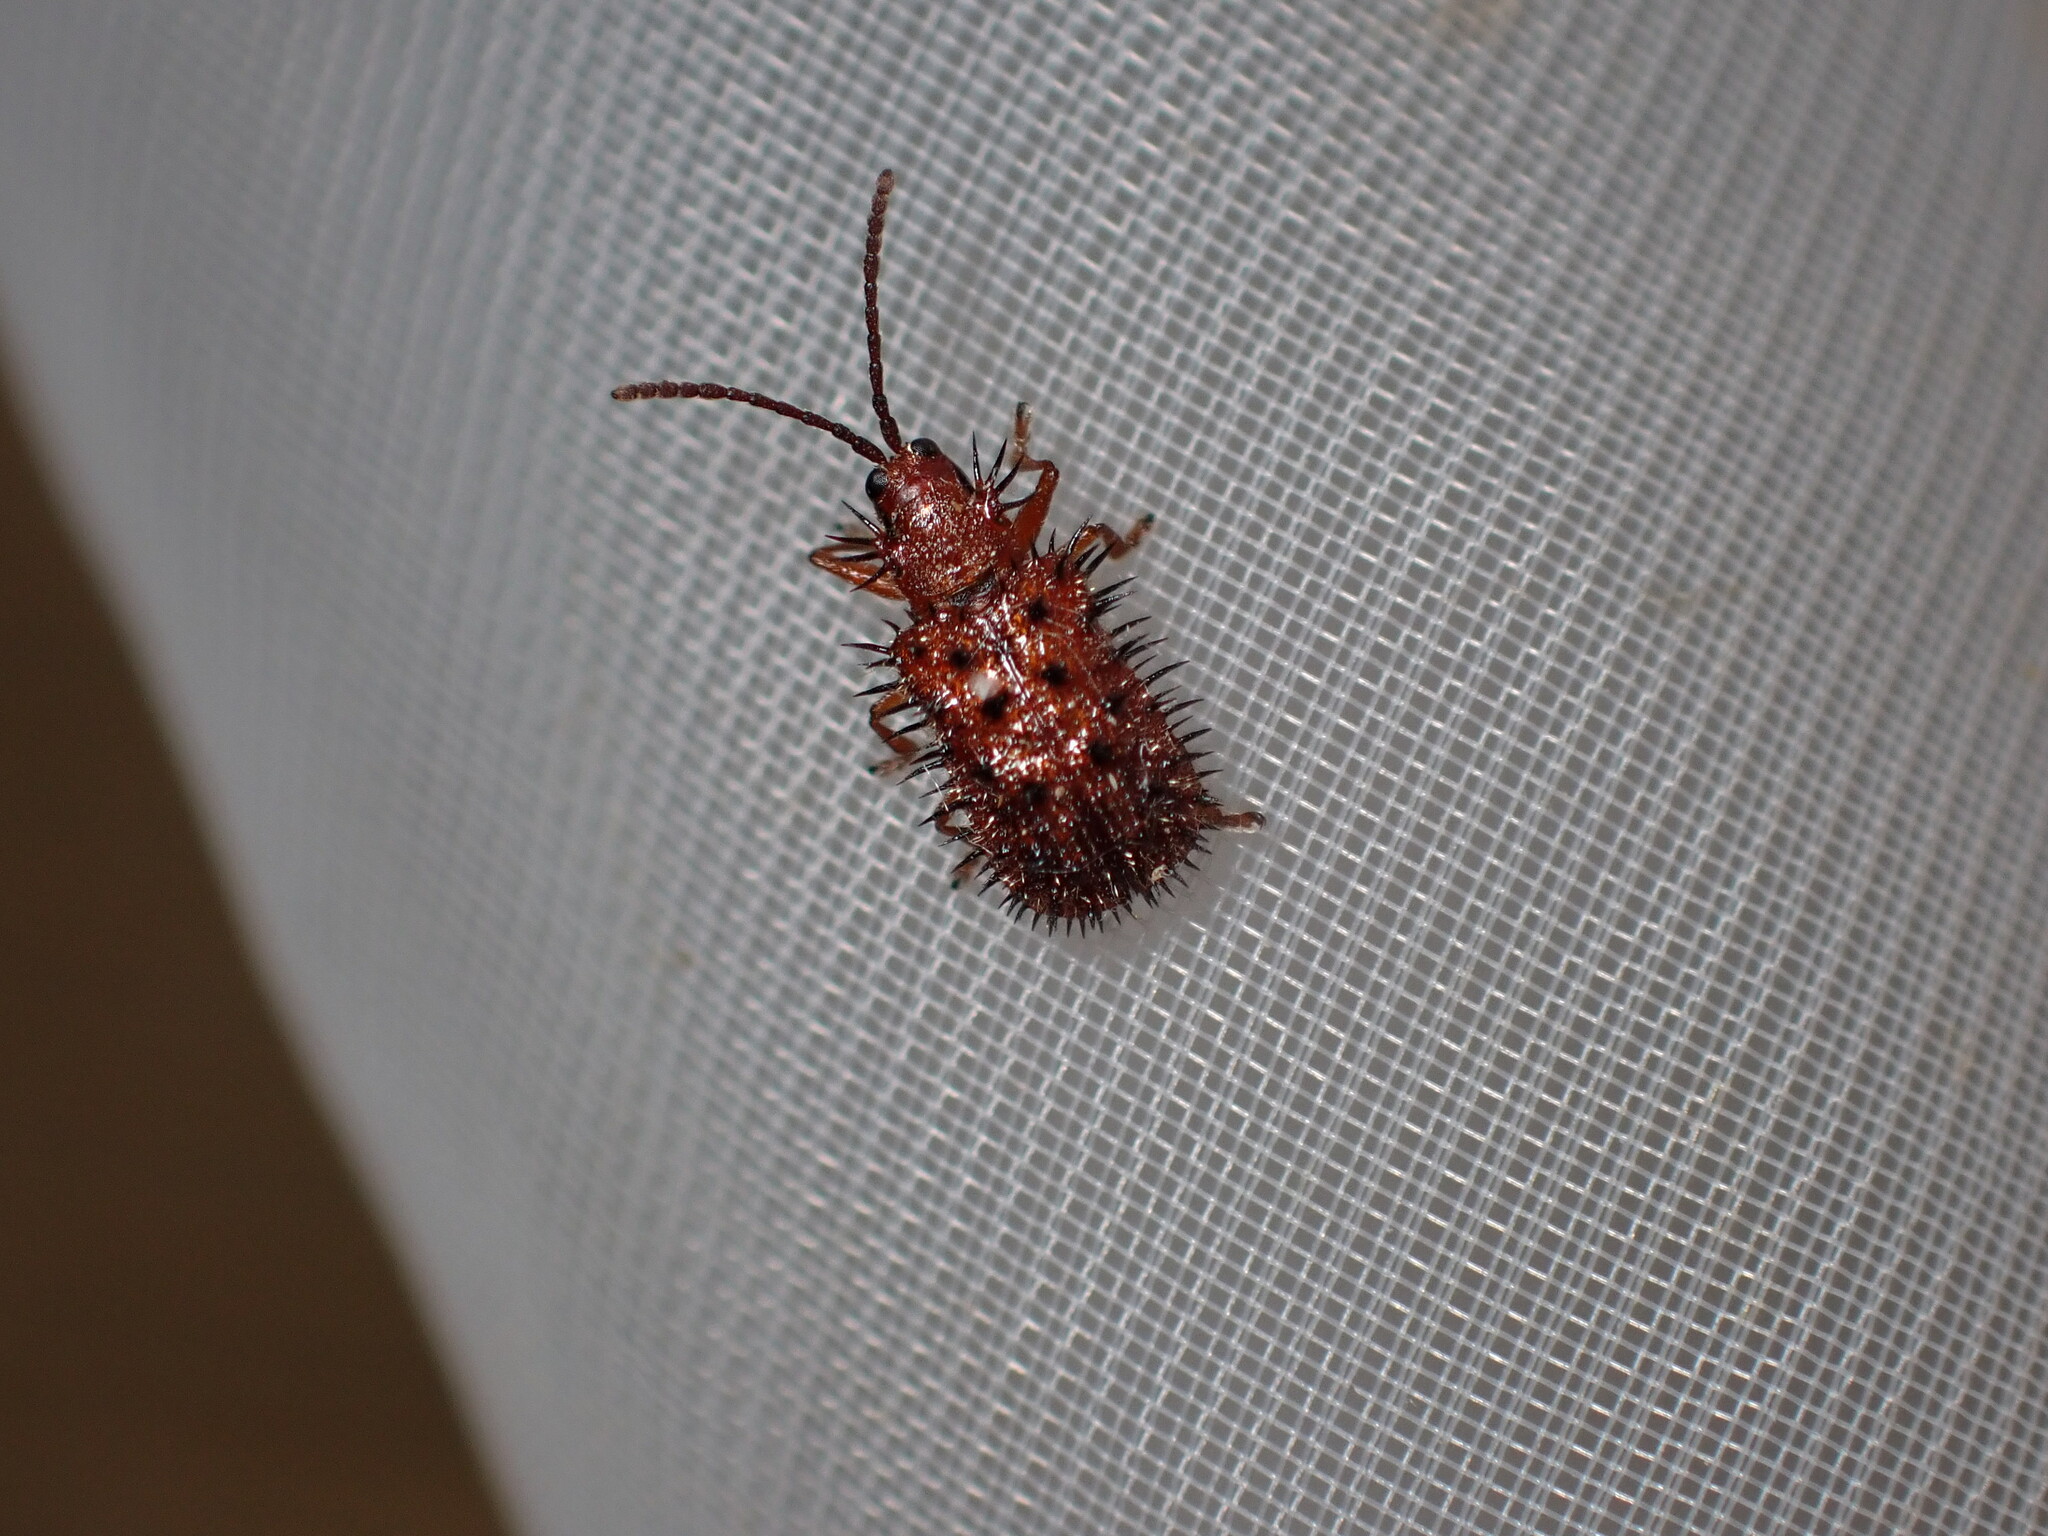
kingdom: Animalia
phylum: Arthropoda
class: Insecta
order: Coleoptera
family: Chrysomelidae
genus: Dicladispa
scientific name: Dicladispa testacea
